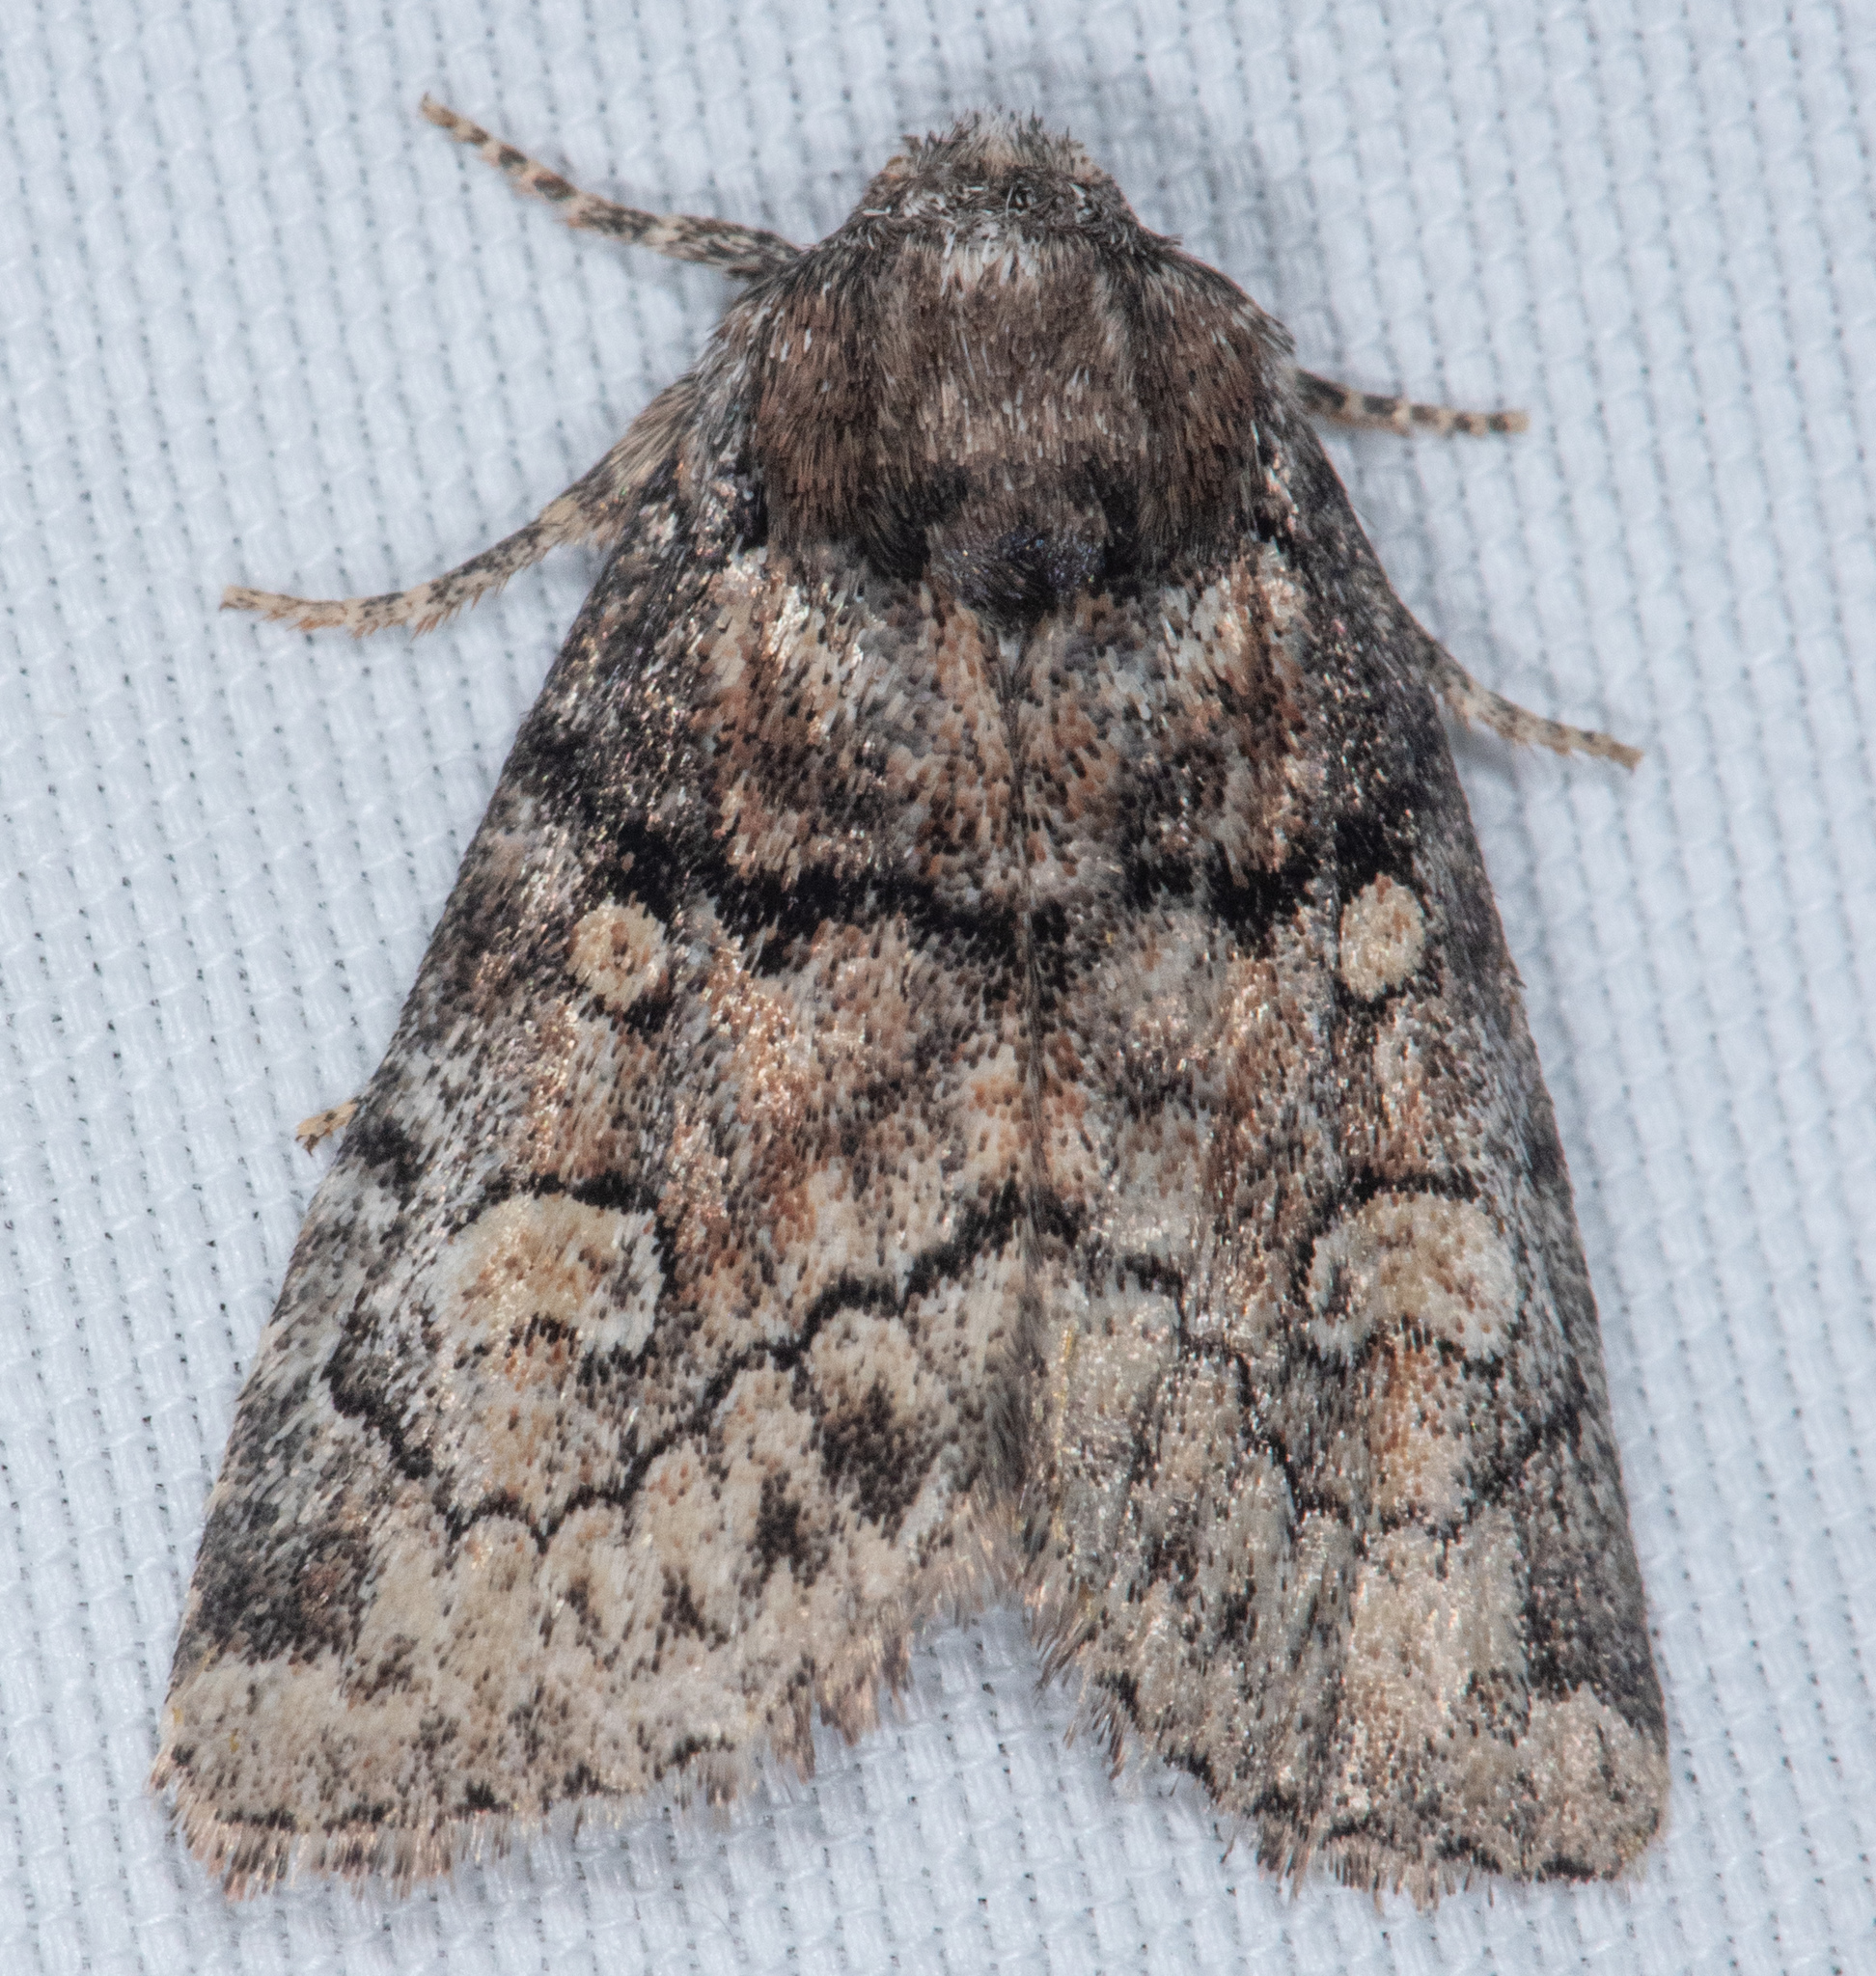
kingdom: Animalia
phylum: Arthropoda
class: Insecta
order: Lepidoptera
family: Noctuidae
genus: Raphia
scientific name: Raphia frater
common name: Brother
